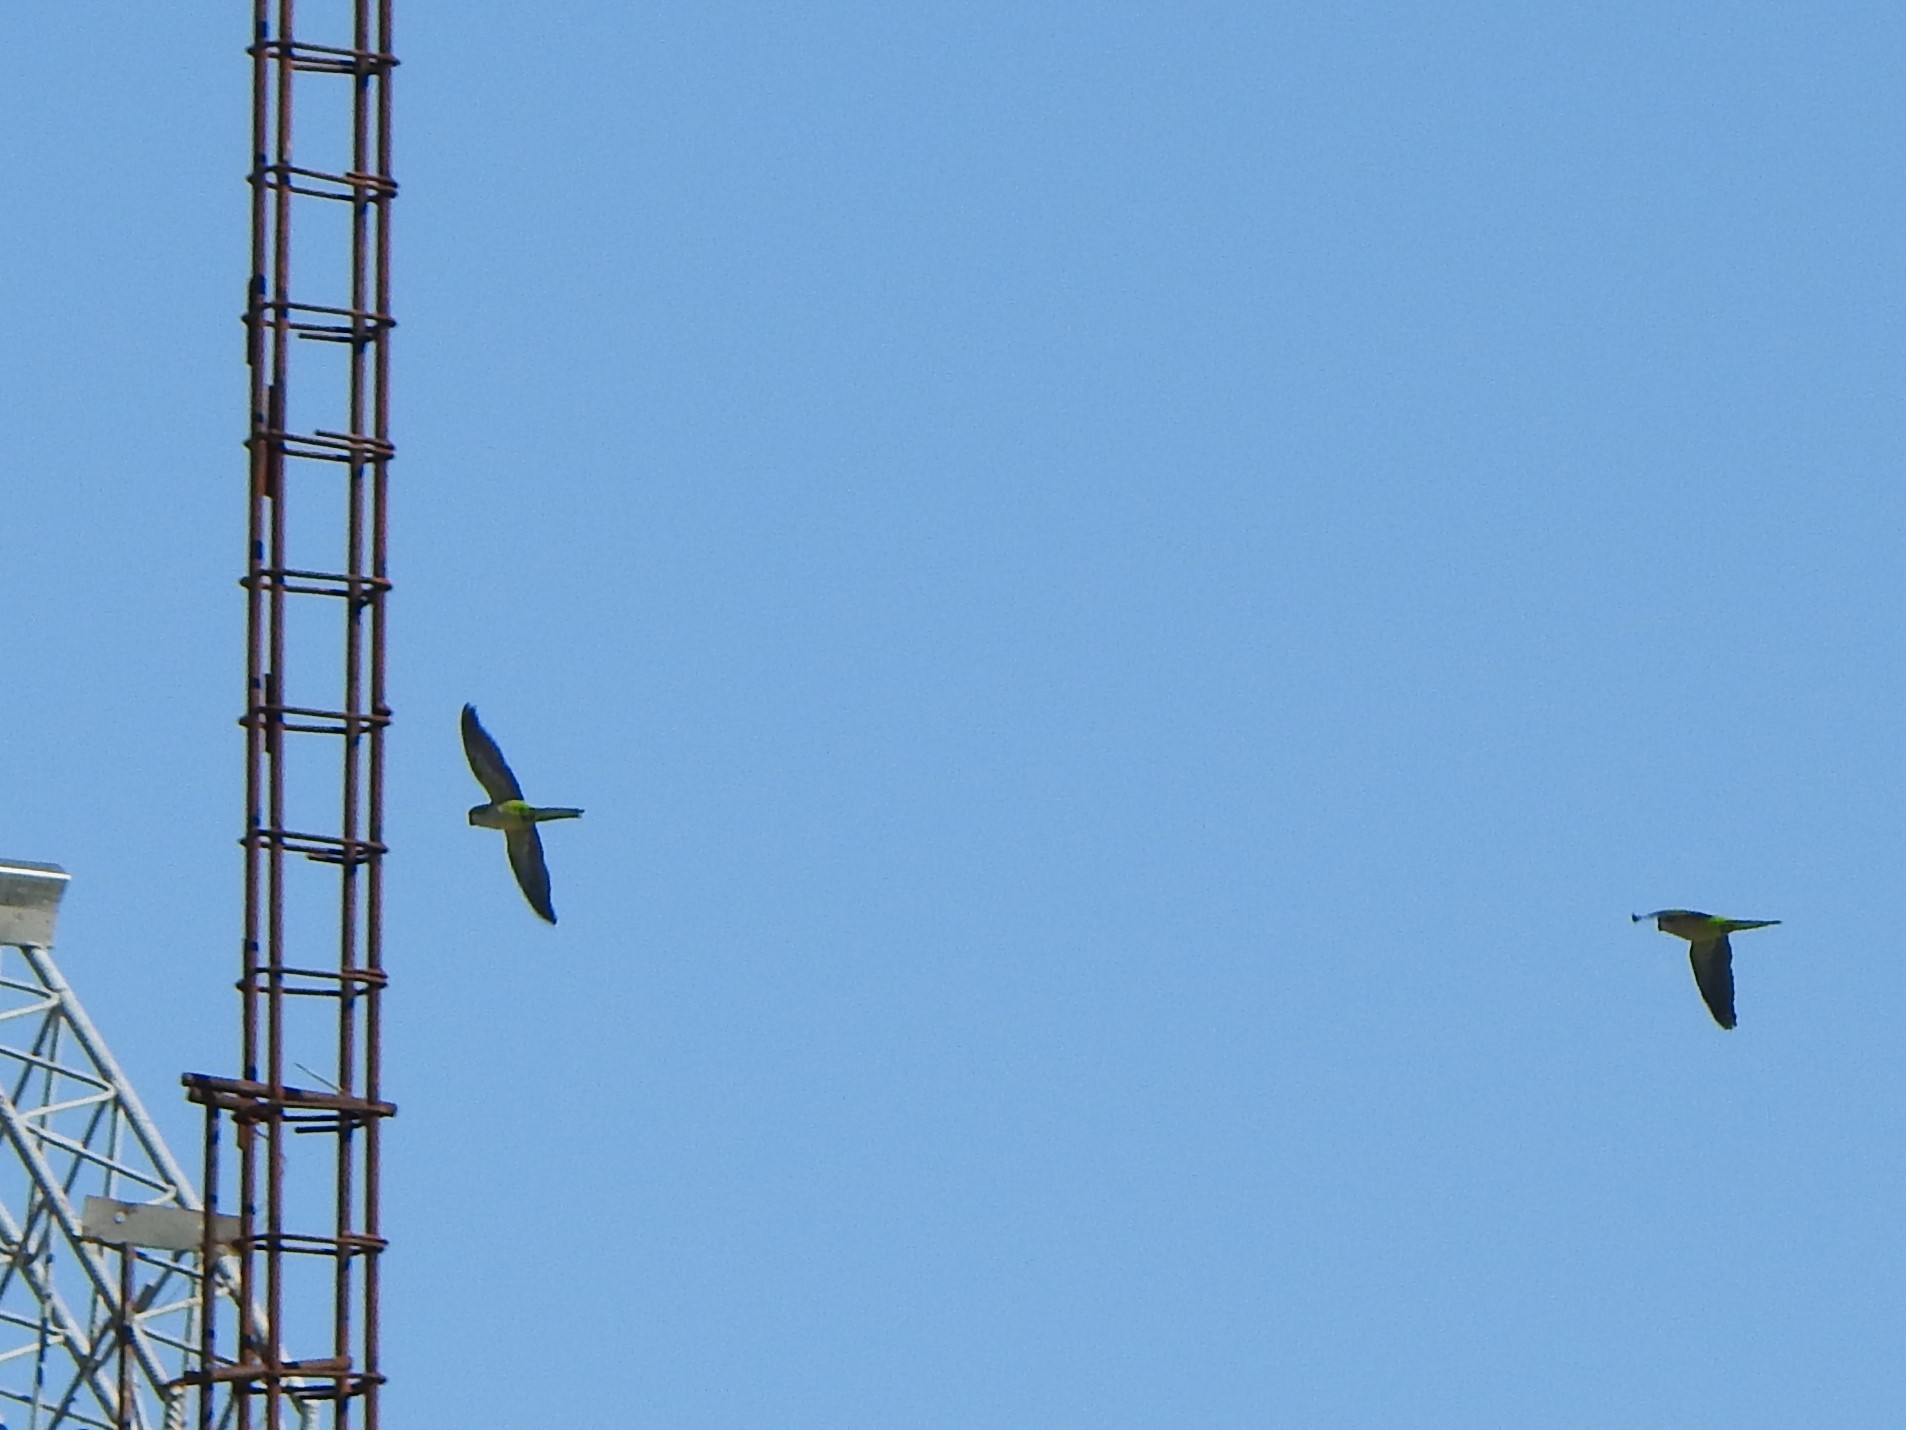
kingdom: Animalia
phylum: Chordata
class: Aves
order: Psittaciformes
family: Psittacidae
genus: Myiopsitta
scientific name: Myiopsitta monachus
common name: Monk parakeet
